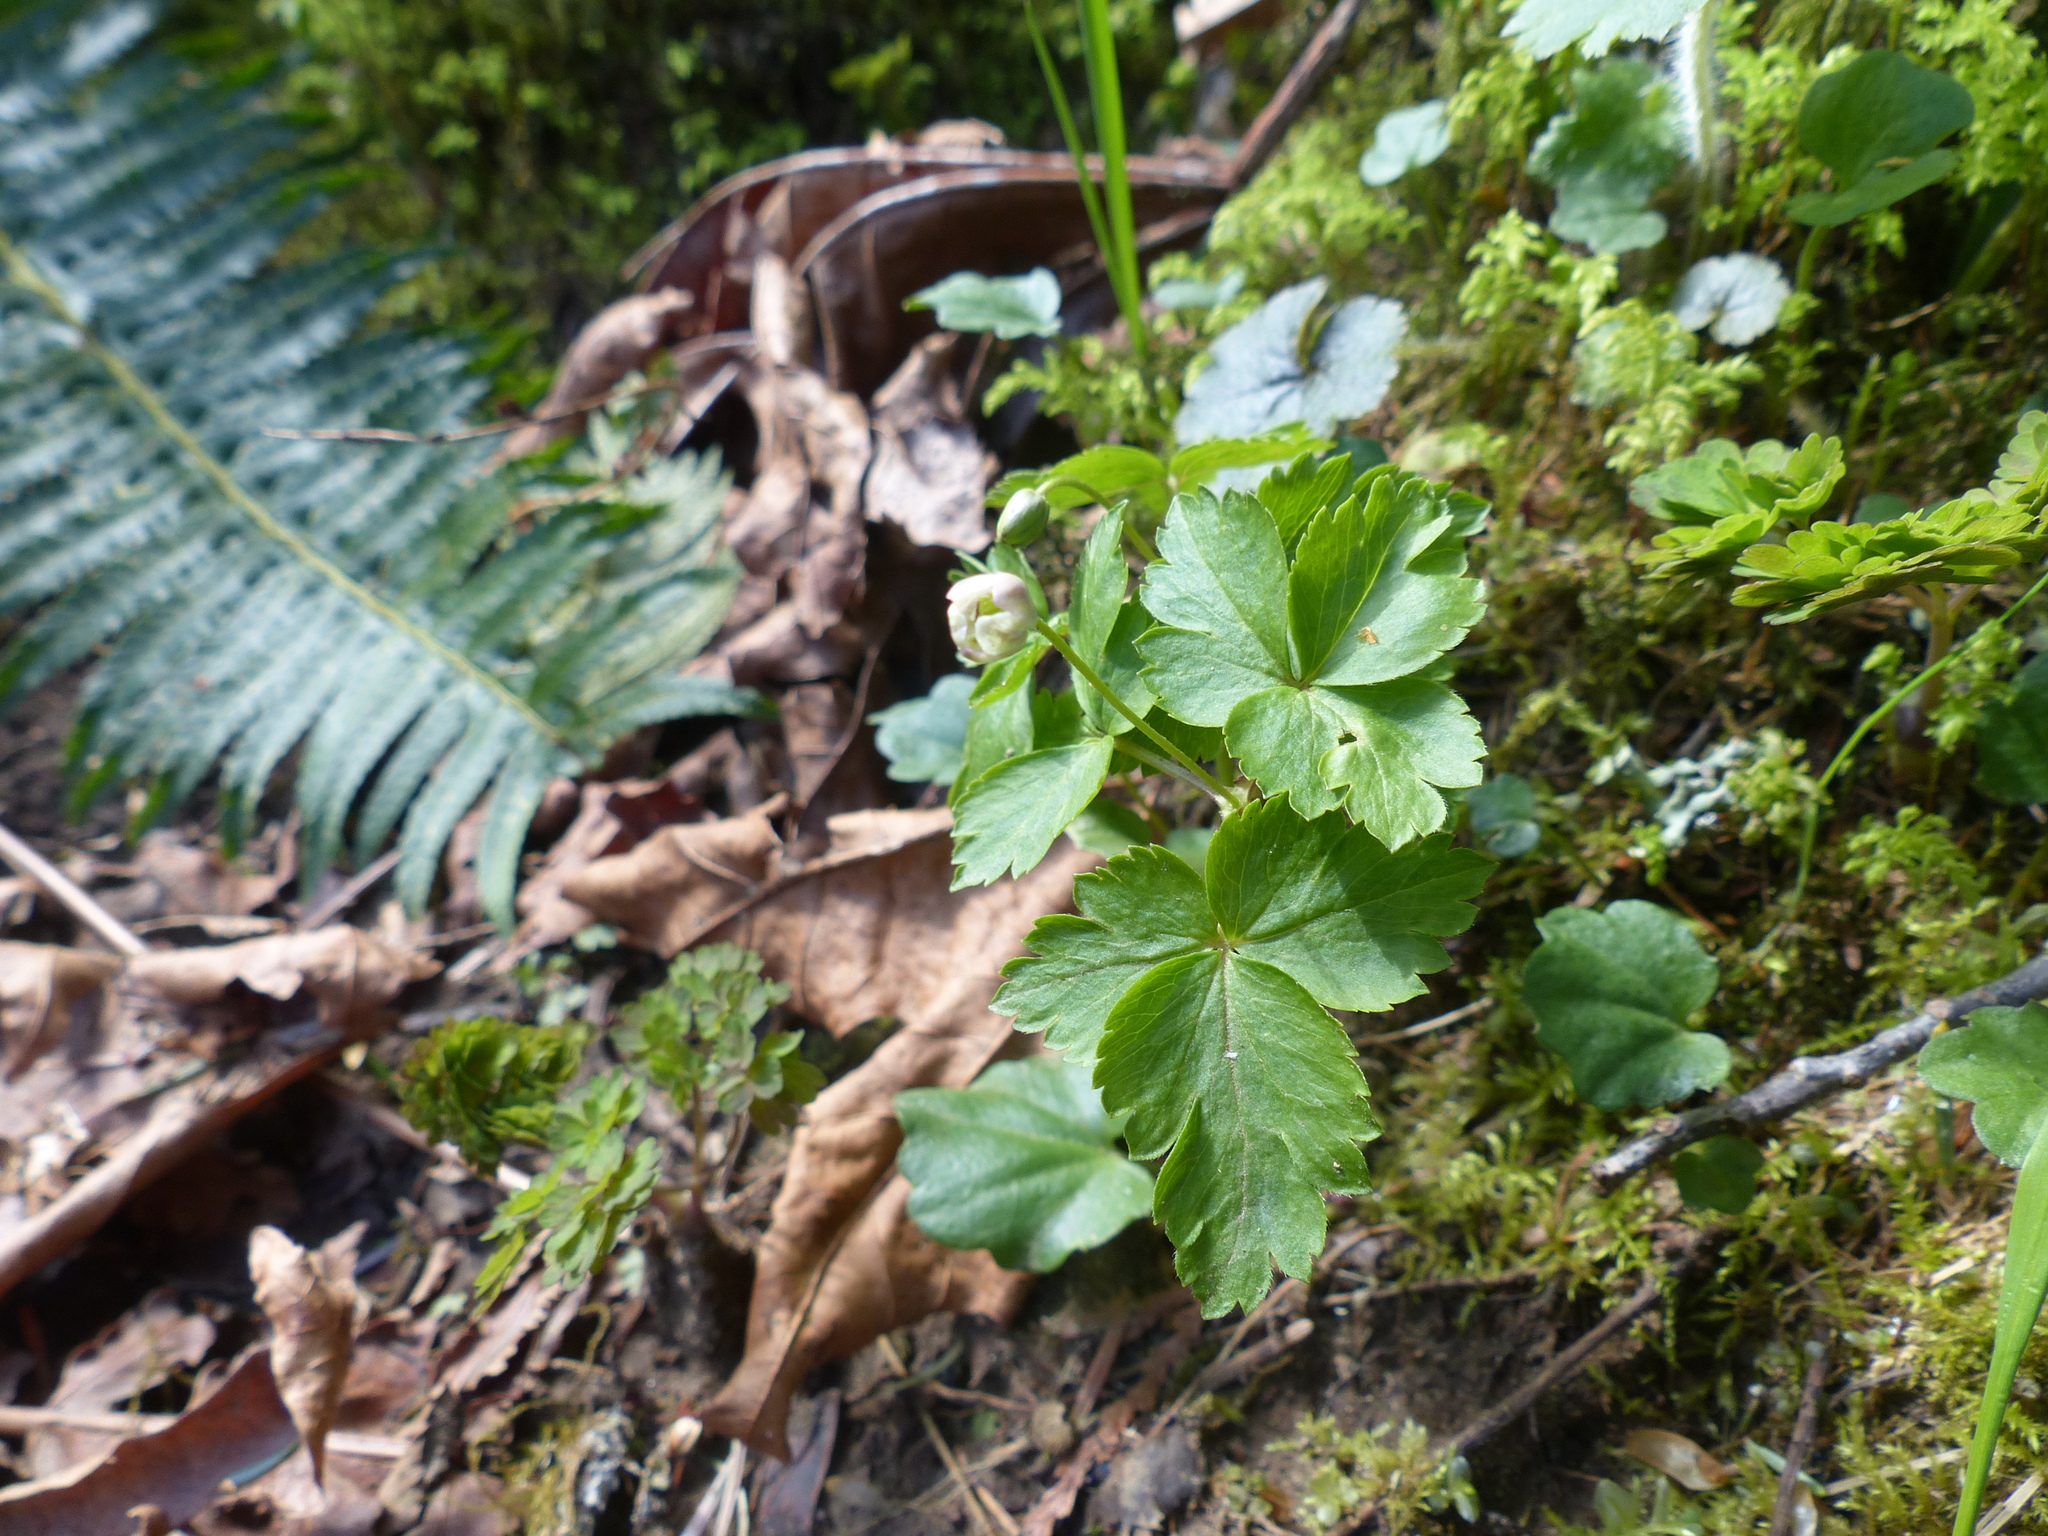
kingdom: Plantae
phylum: Tracheophyta
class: Magnoliopsida
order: Ranunculales
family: Ranunculaceae
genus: Anemone
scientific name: Anemone
